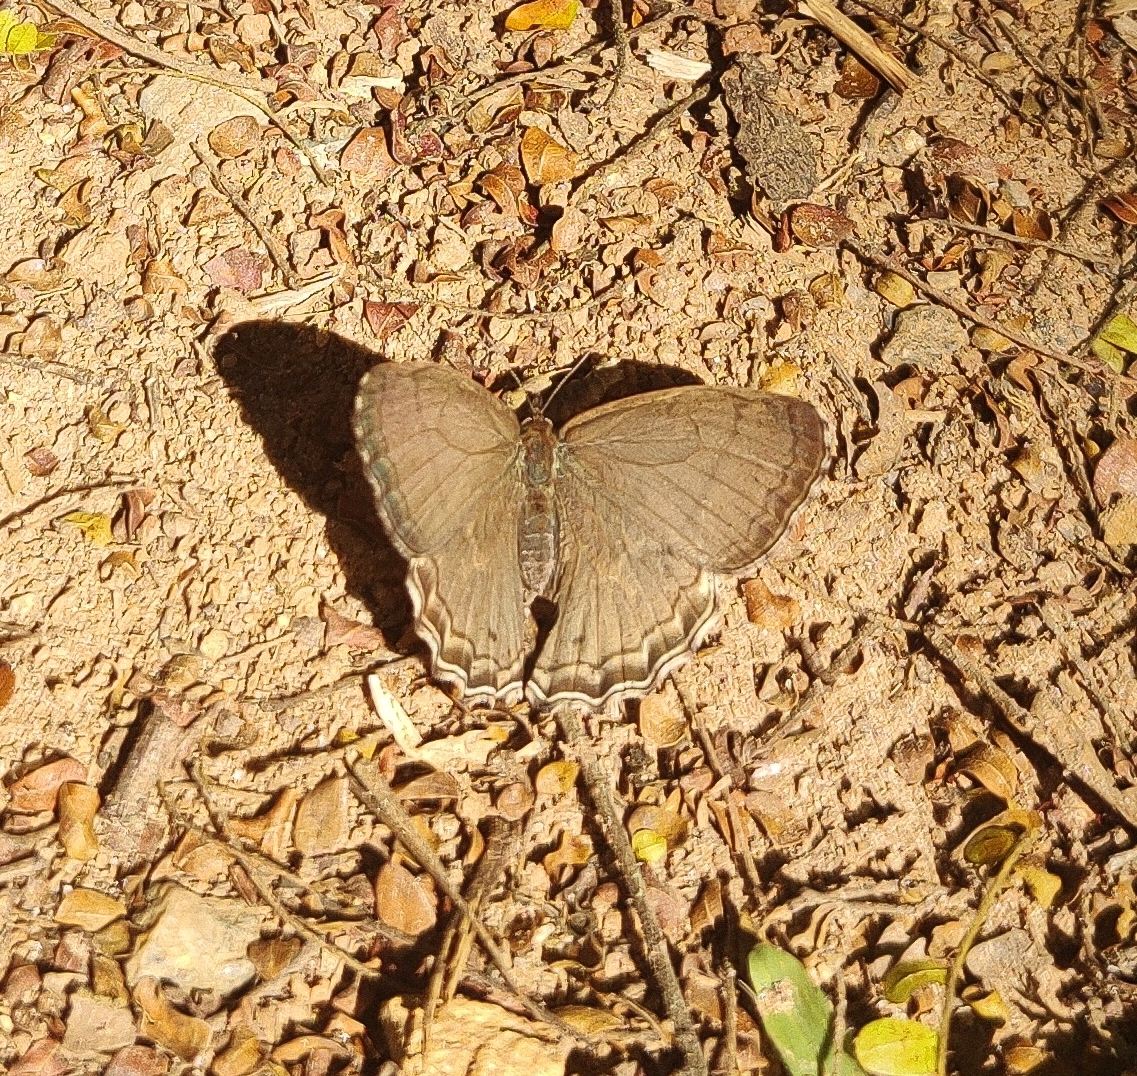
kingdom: Animalia
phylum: Arthropoda
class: Insecta
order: Lepidoptera
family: Nymphalidae
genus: Carminda
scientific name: Carminda paeon
